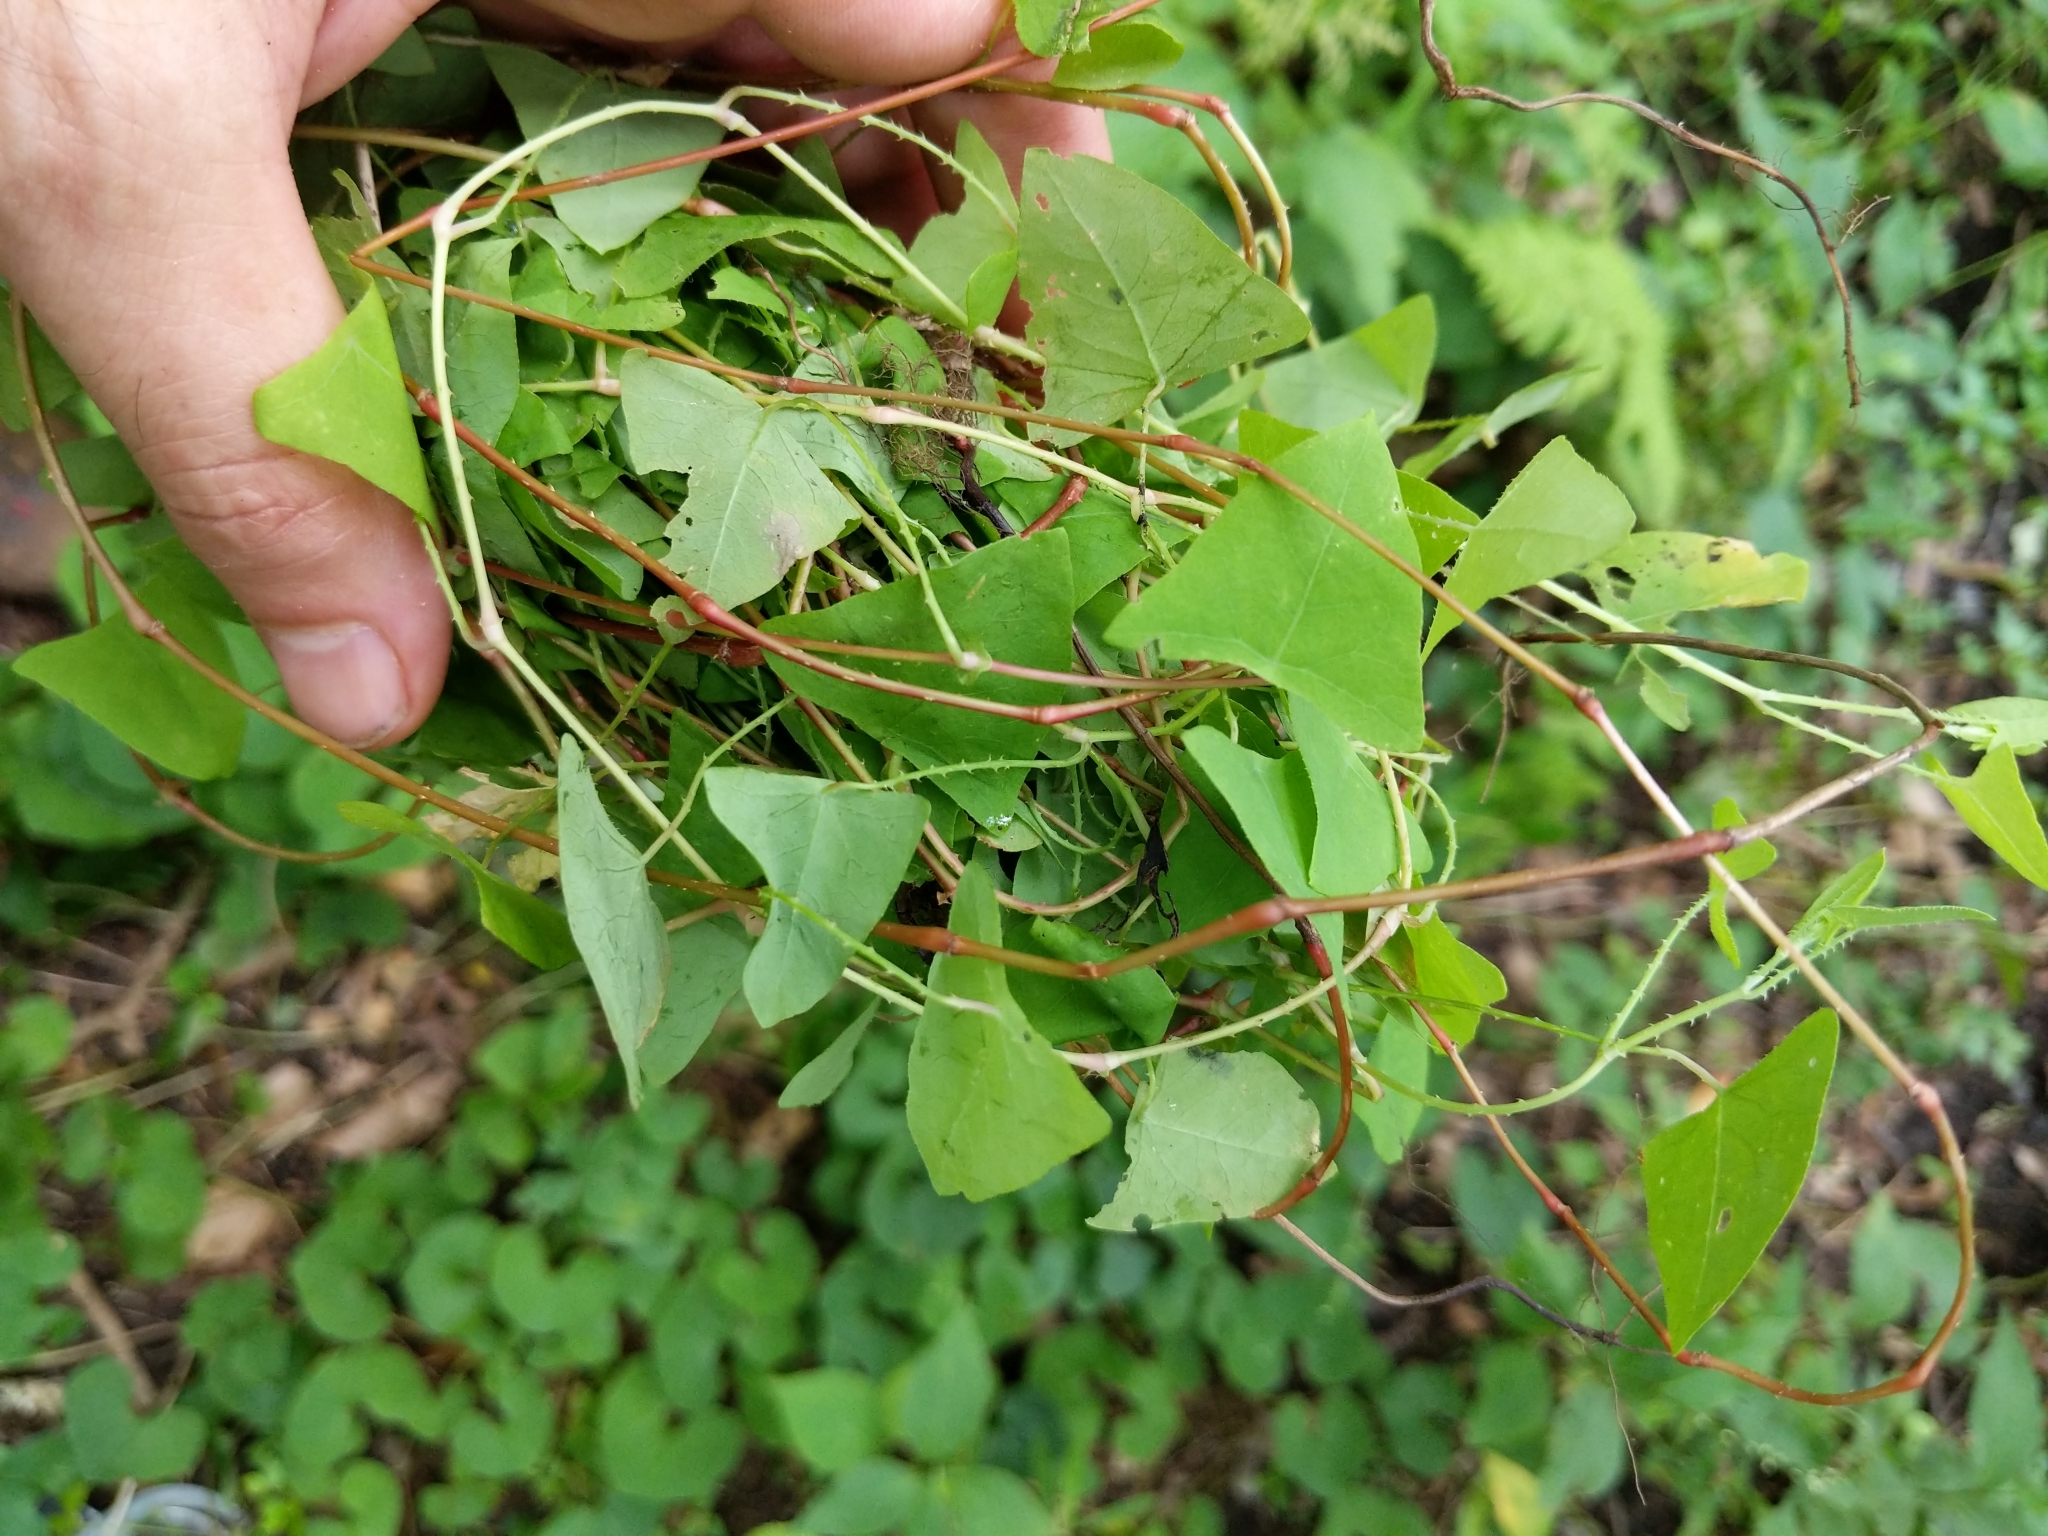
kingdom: Plantae
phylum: Tracheophyta
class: Magnoliopsida
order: Caryophyllales
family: Polygonaceae
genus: Persicaria
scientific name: Persicaria perfoliata
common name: Asiatic tearthumb
